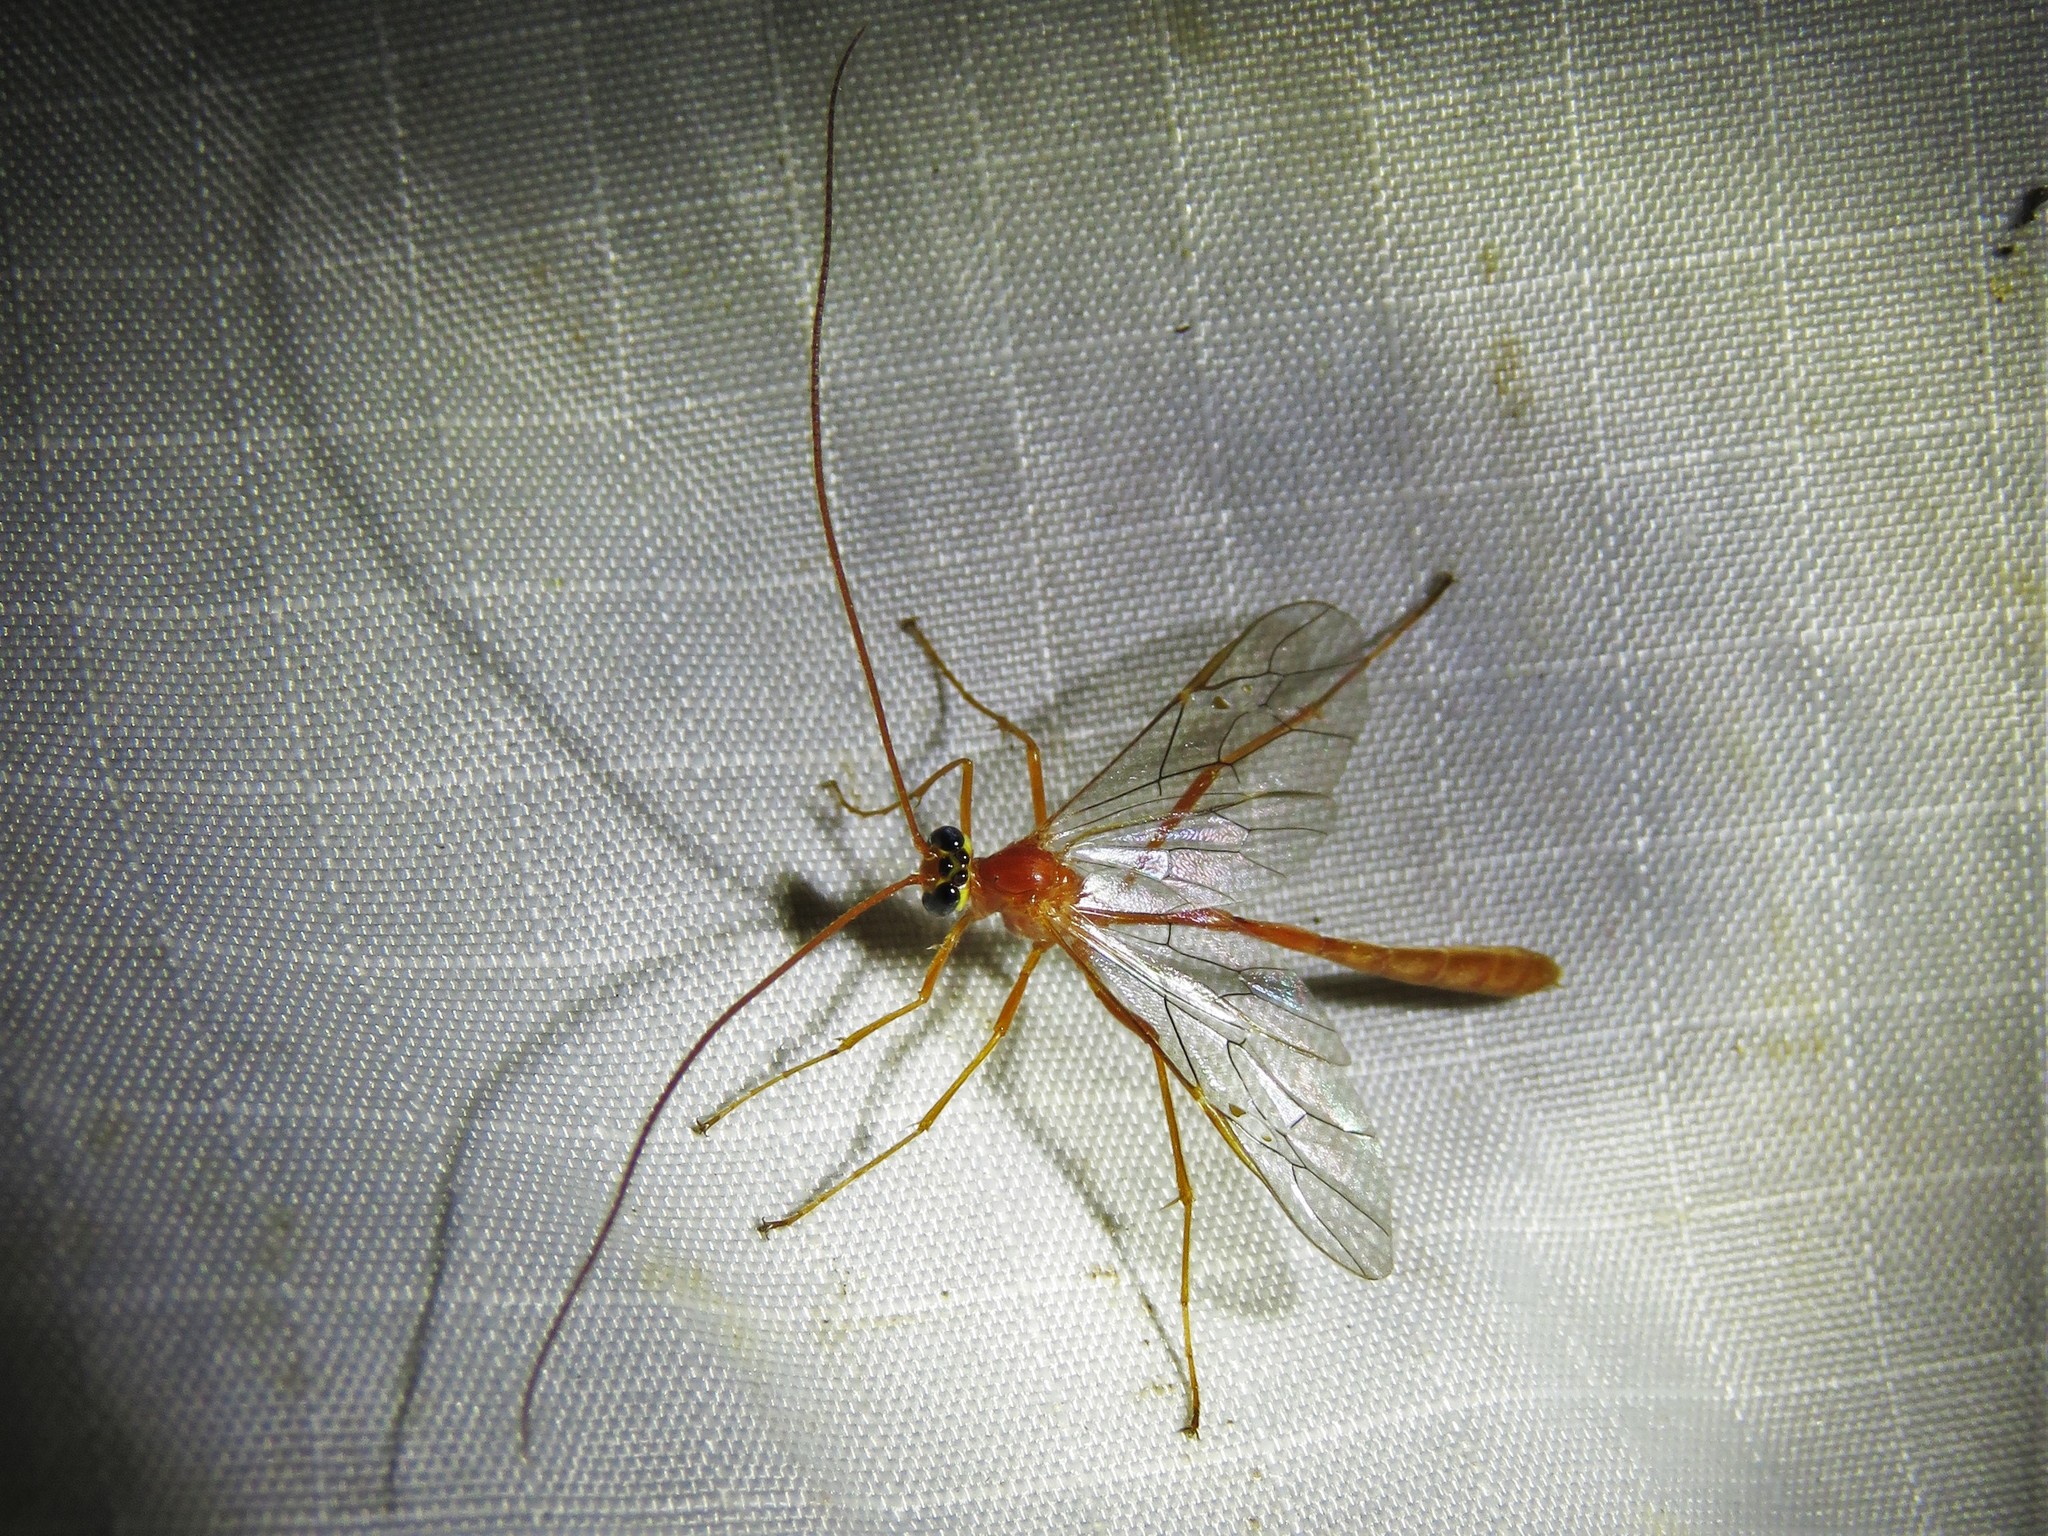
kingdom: Animalia
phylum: Arthropoda
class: Insecta
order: Hymenoptera
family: Ichneumonidae
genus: Enicospilus
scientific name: Enicospilus purgatus
